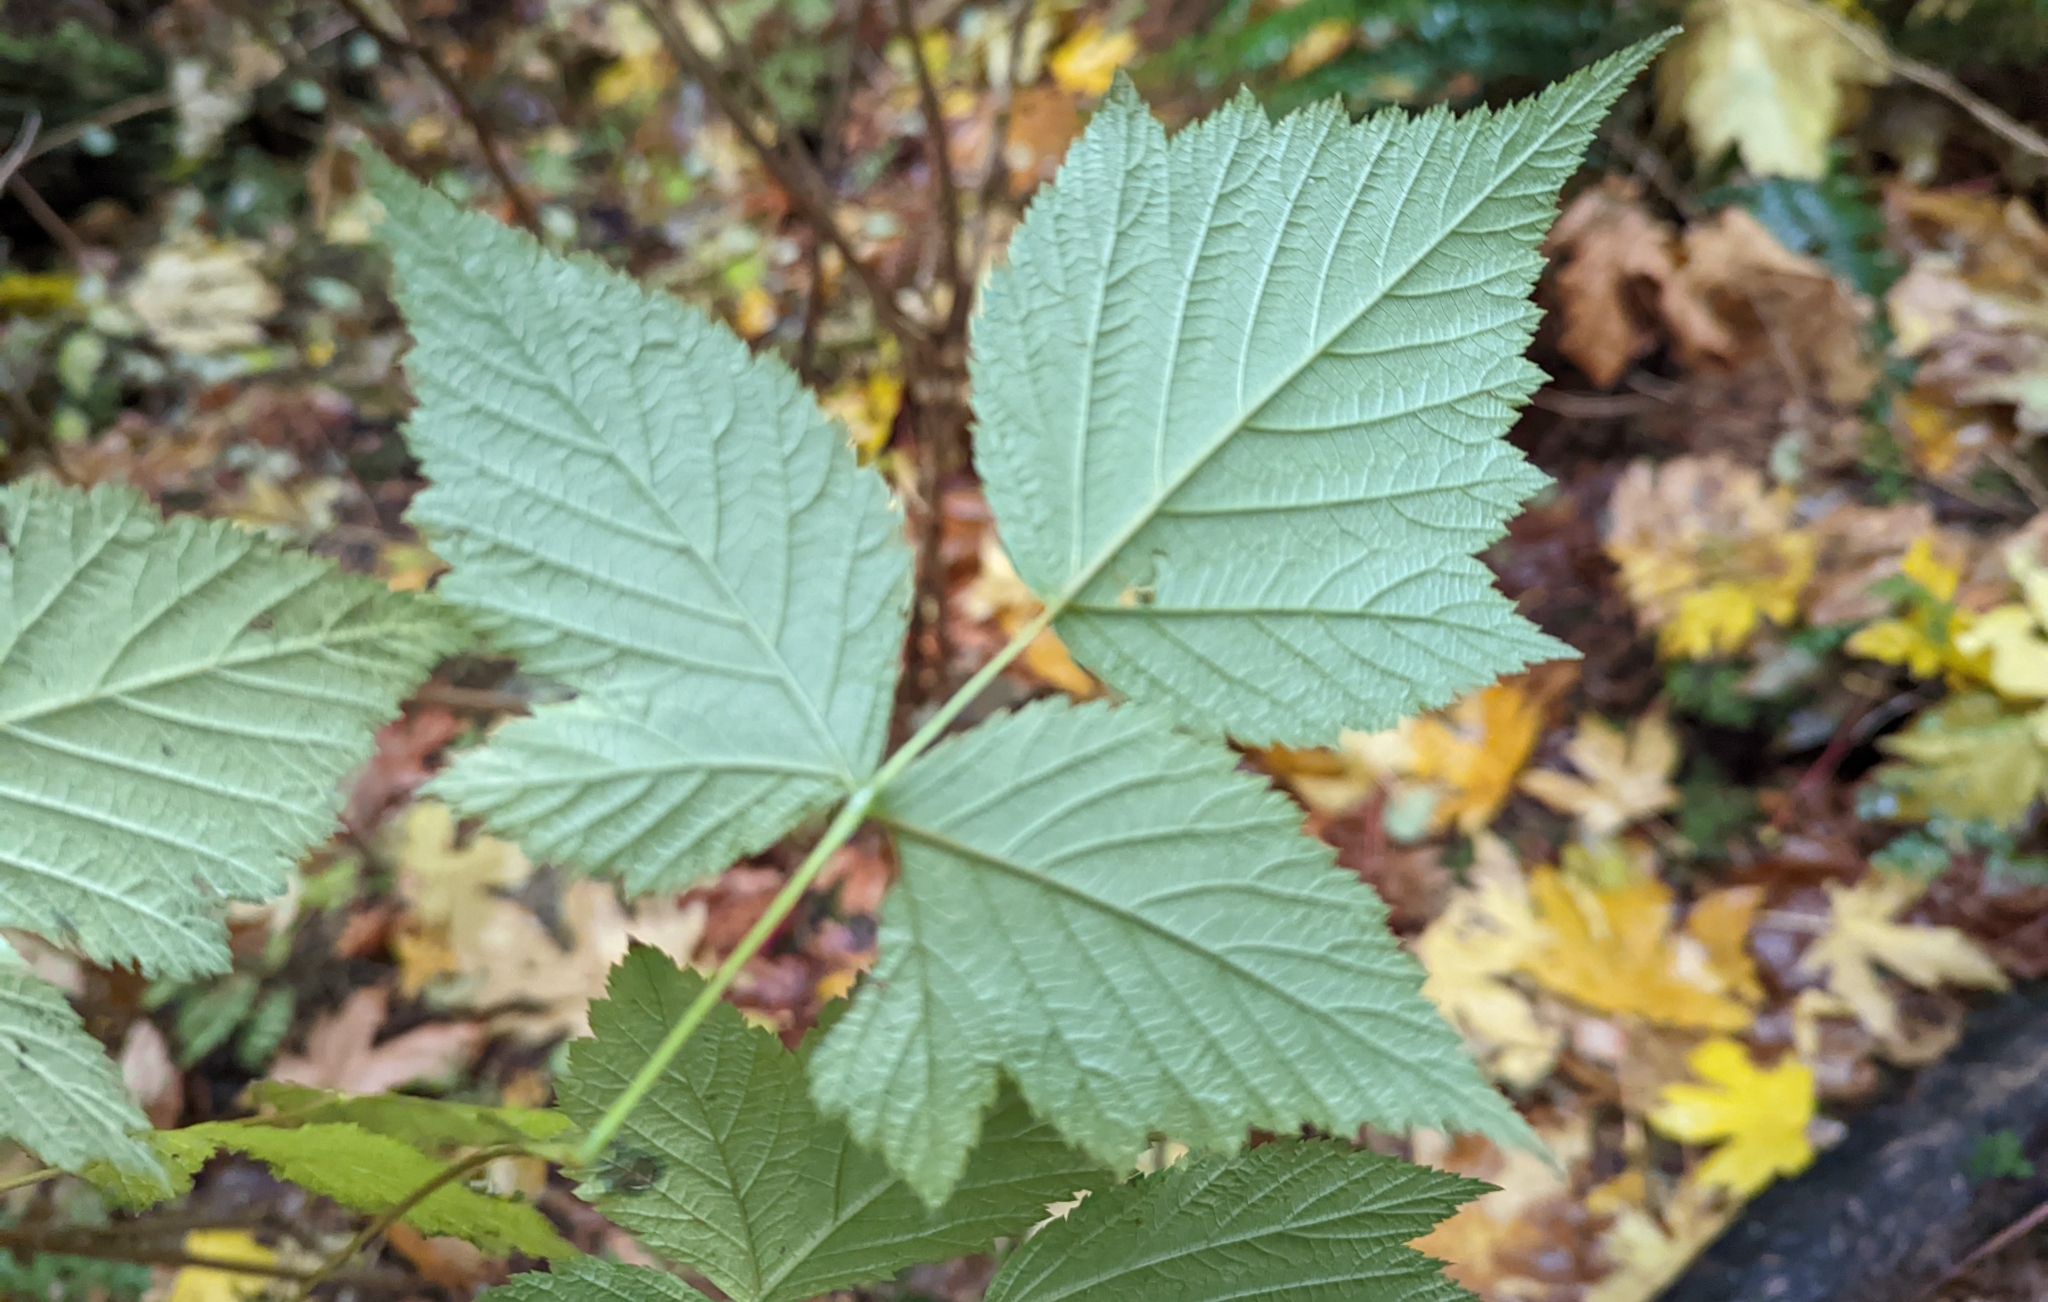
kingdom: Plantae
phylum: Tracheophyta
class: Magnoliopsida
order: Rosales
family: Rosaceae
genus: Rubus
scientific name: Rubus spectabilis
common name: Salmonberry
